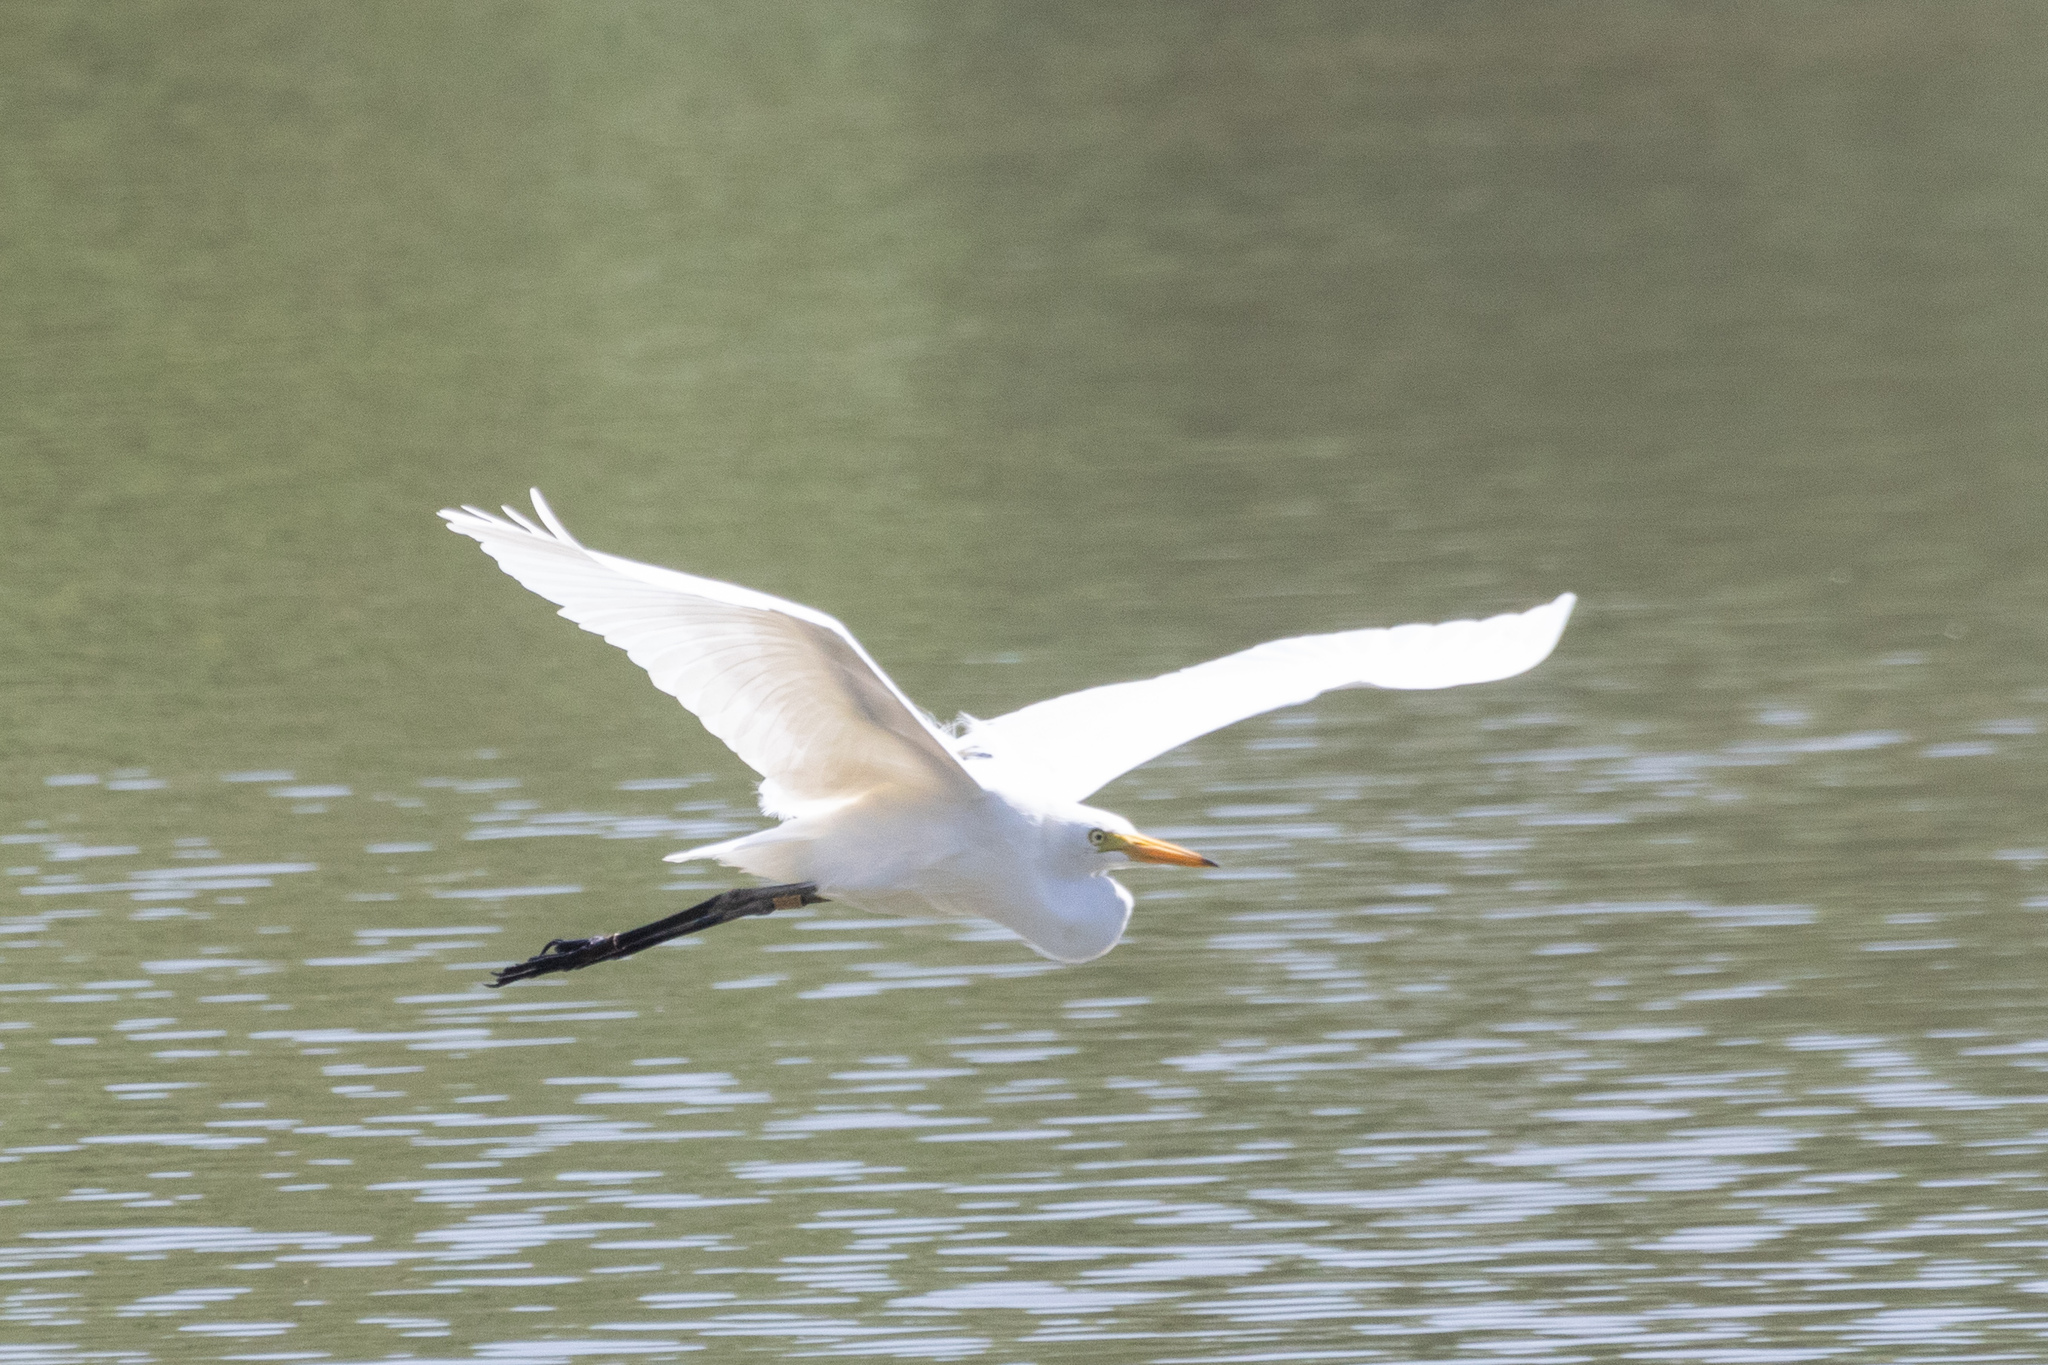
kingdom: Animalia
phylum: Chordata
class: Aves
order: Pelecaniformes
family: Ardeidae
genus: Egretta
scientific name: Egretta intermedia
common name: Intermediate egret
